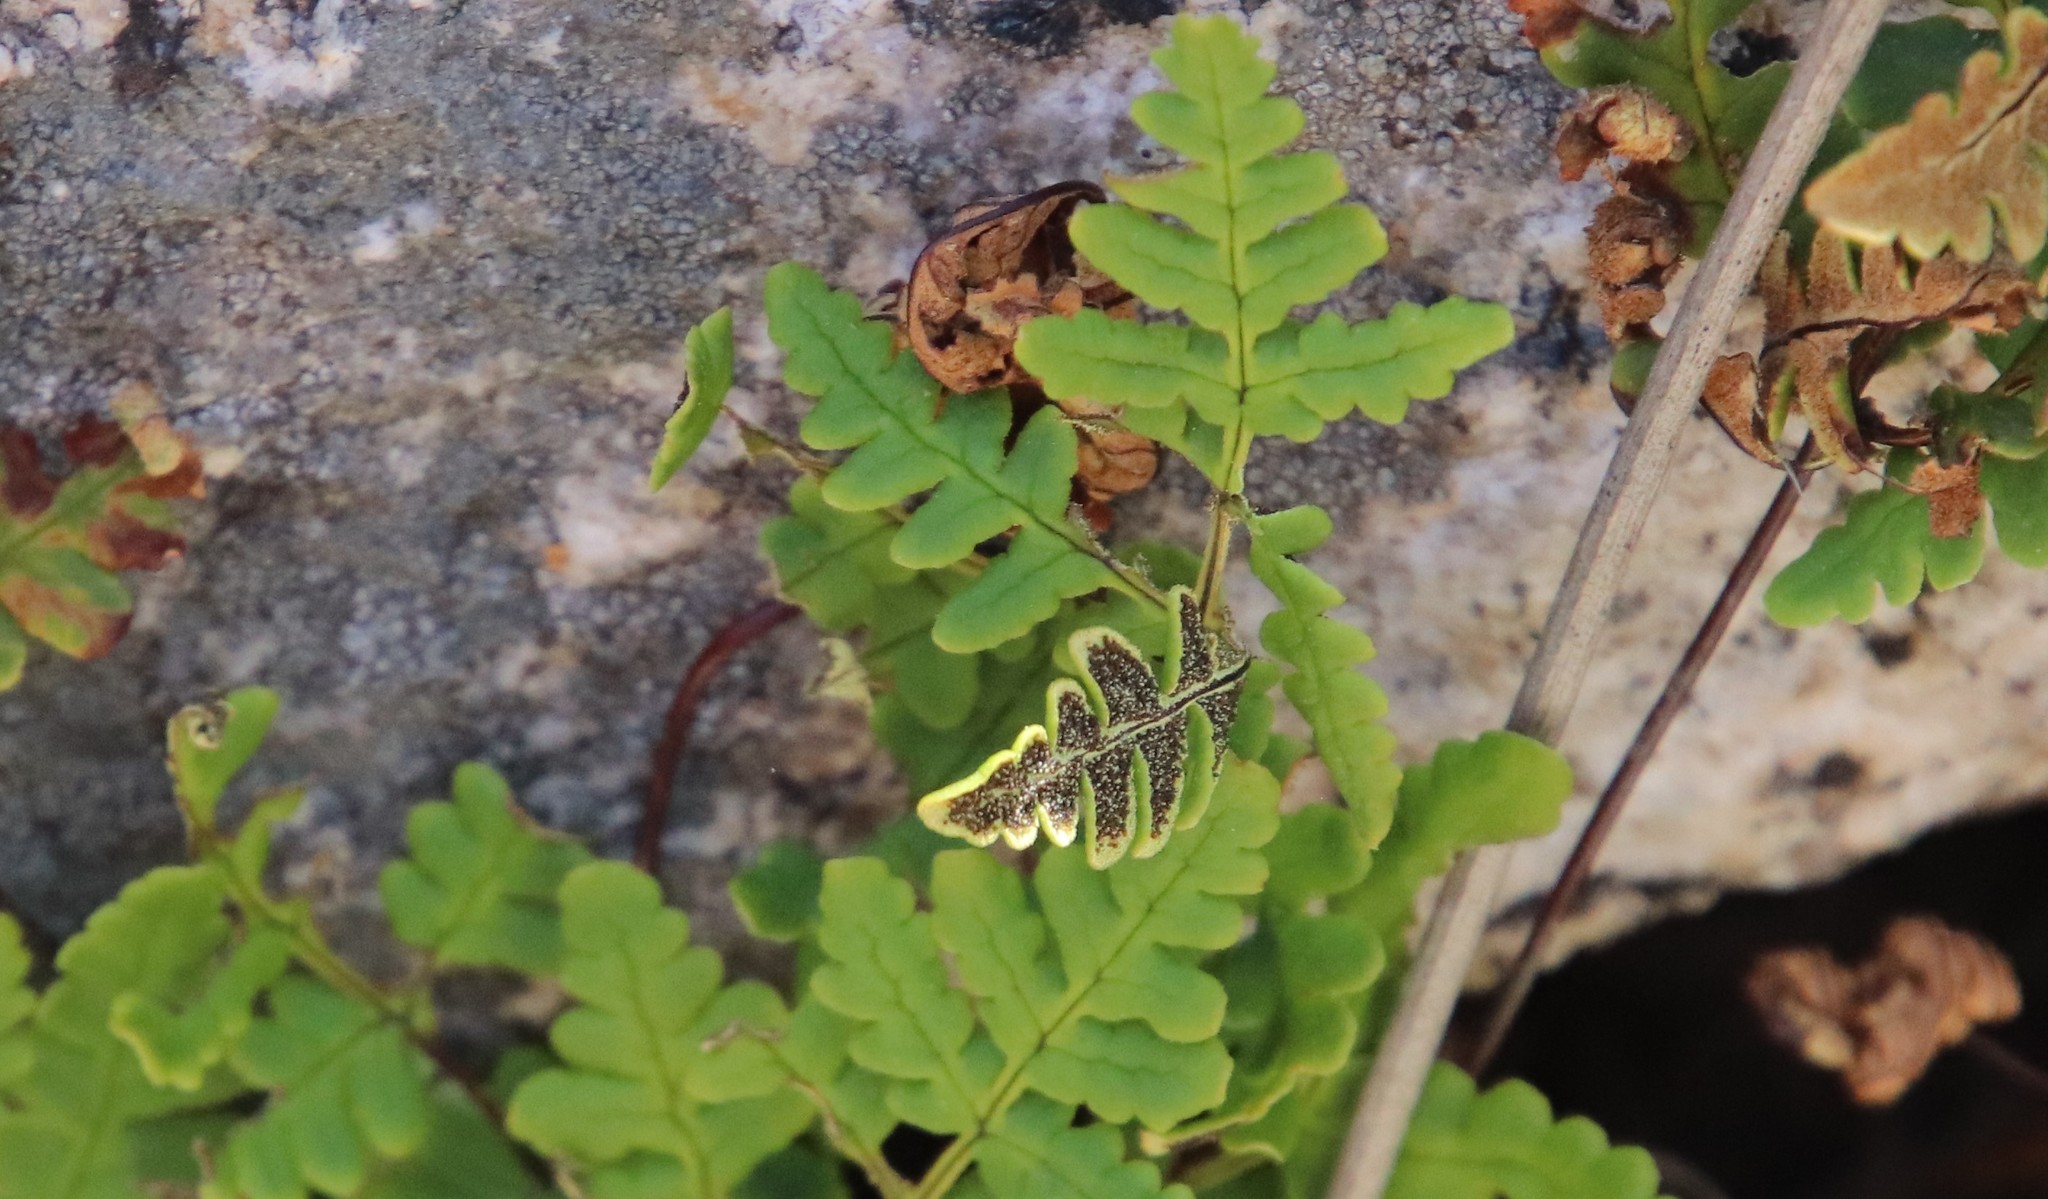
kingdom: Plantae
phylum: Tracheophyta
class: Polypodiopsida
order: Polypodiales
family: Pteridaceae
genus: Pentagramma
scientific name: Pentagramma triangularis
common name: Gold fern
